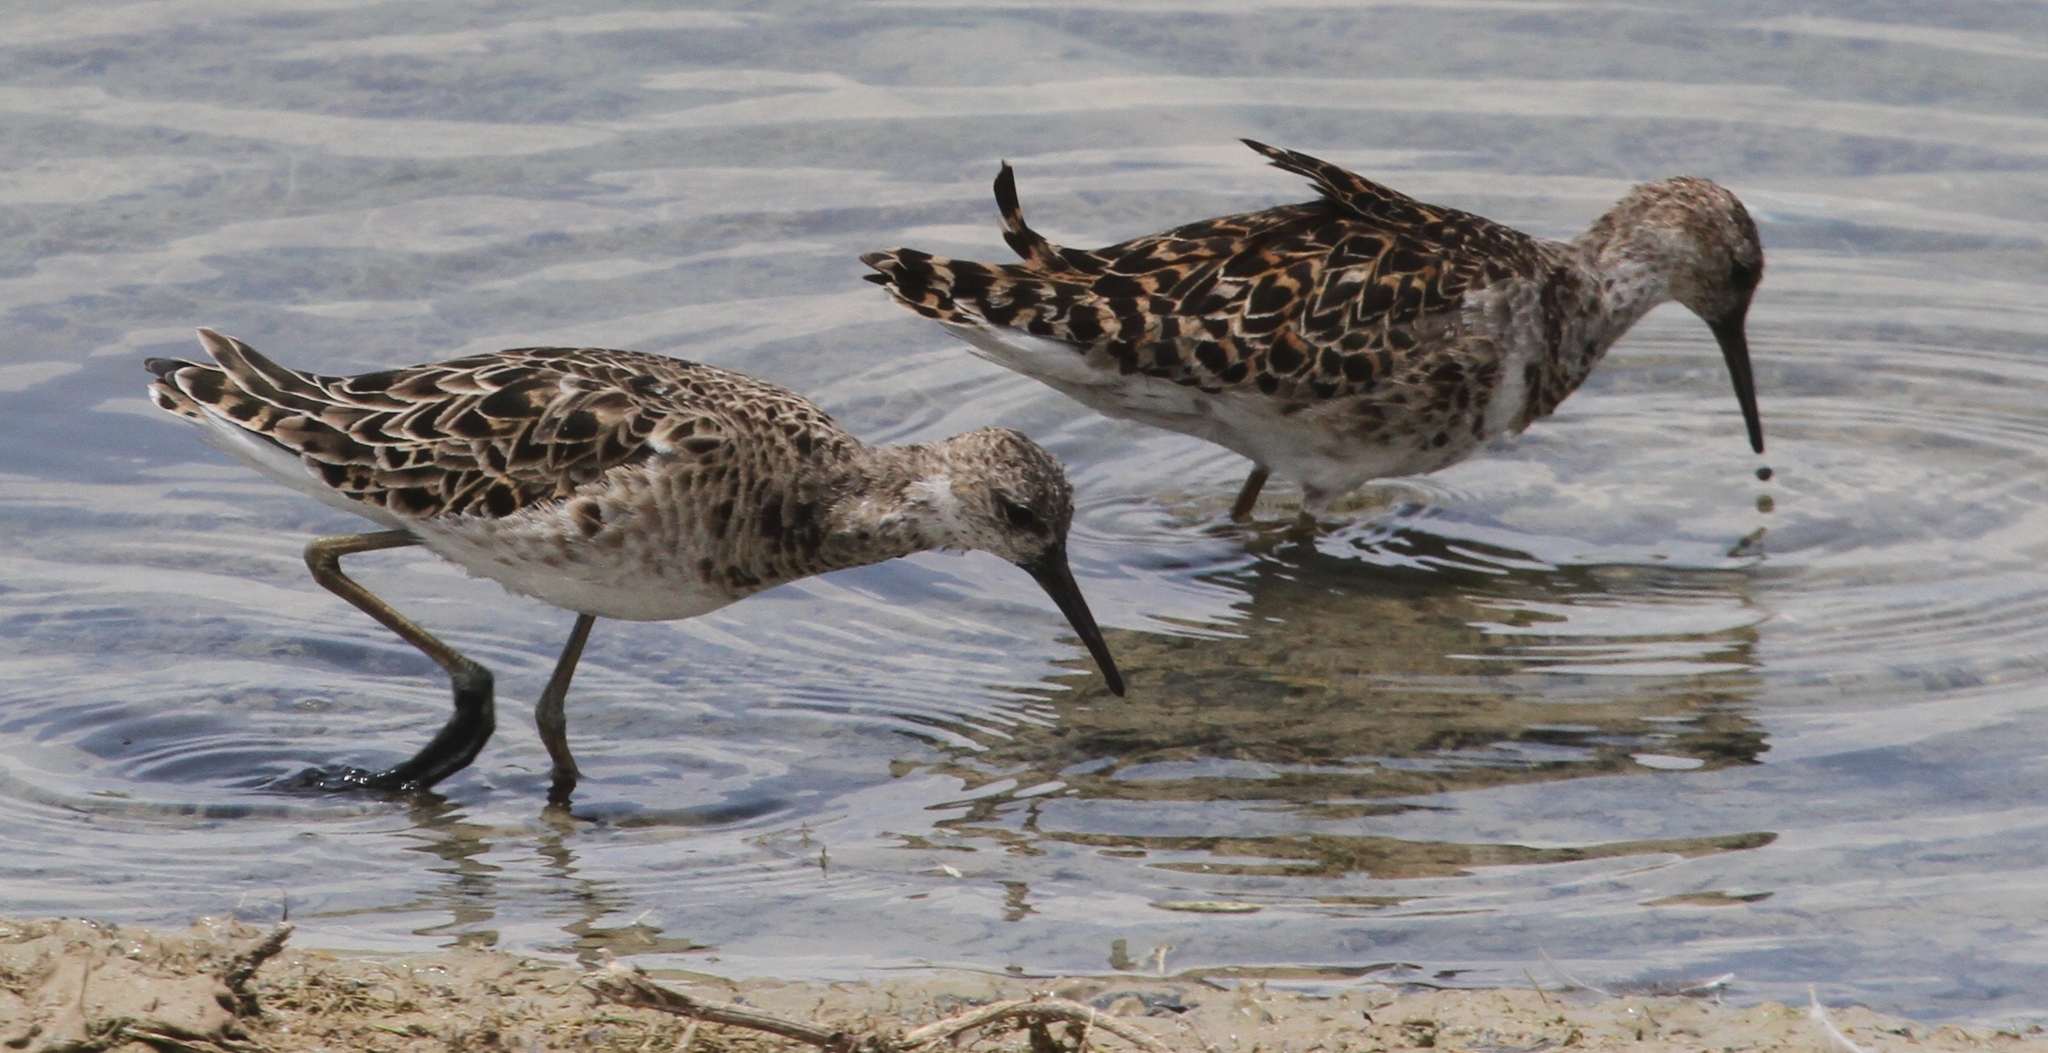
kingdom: Animalia
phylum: Chordata
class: Aves
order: Charadriiformes
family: Scolopacidae
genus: Calidris
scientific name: Calidris pugnax
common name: Ruff
